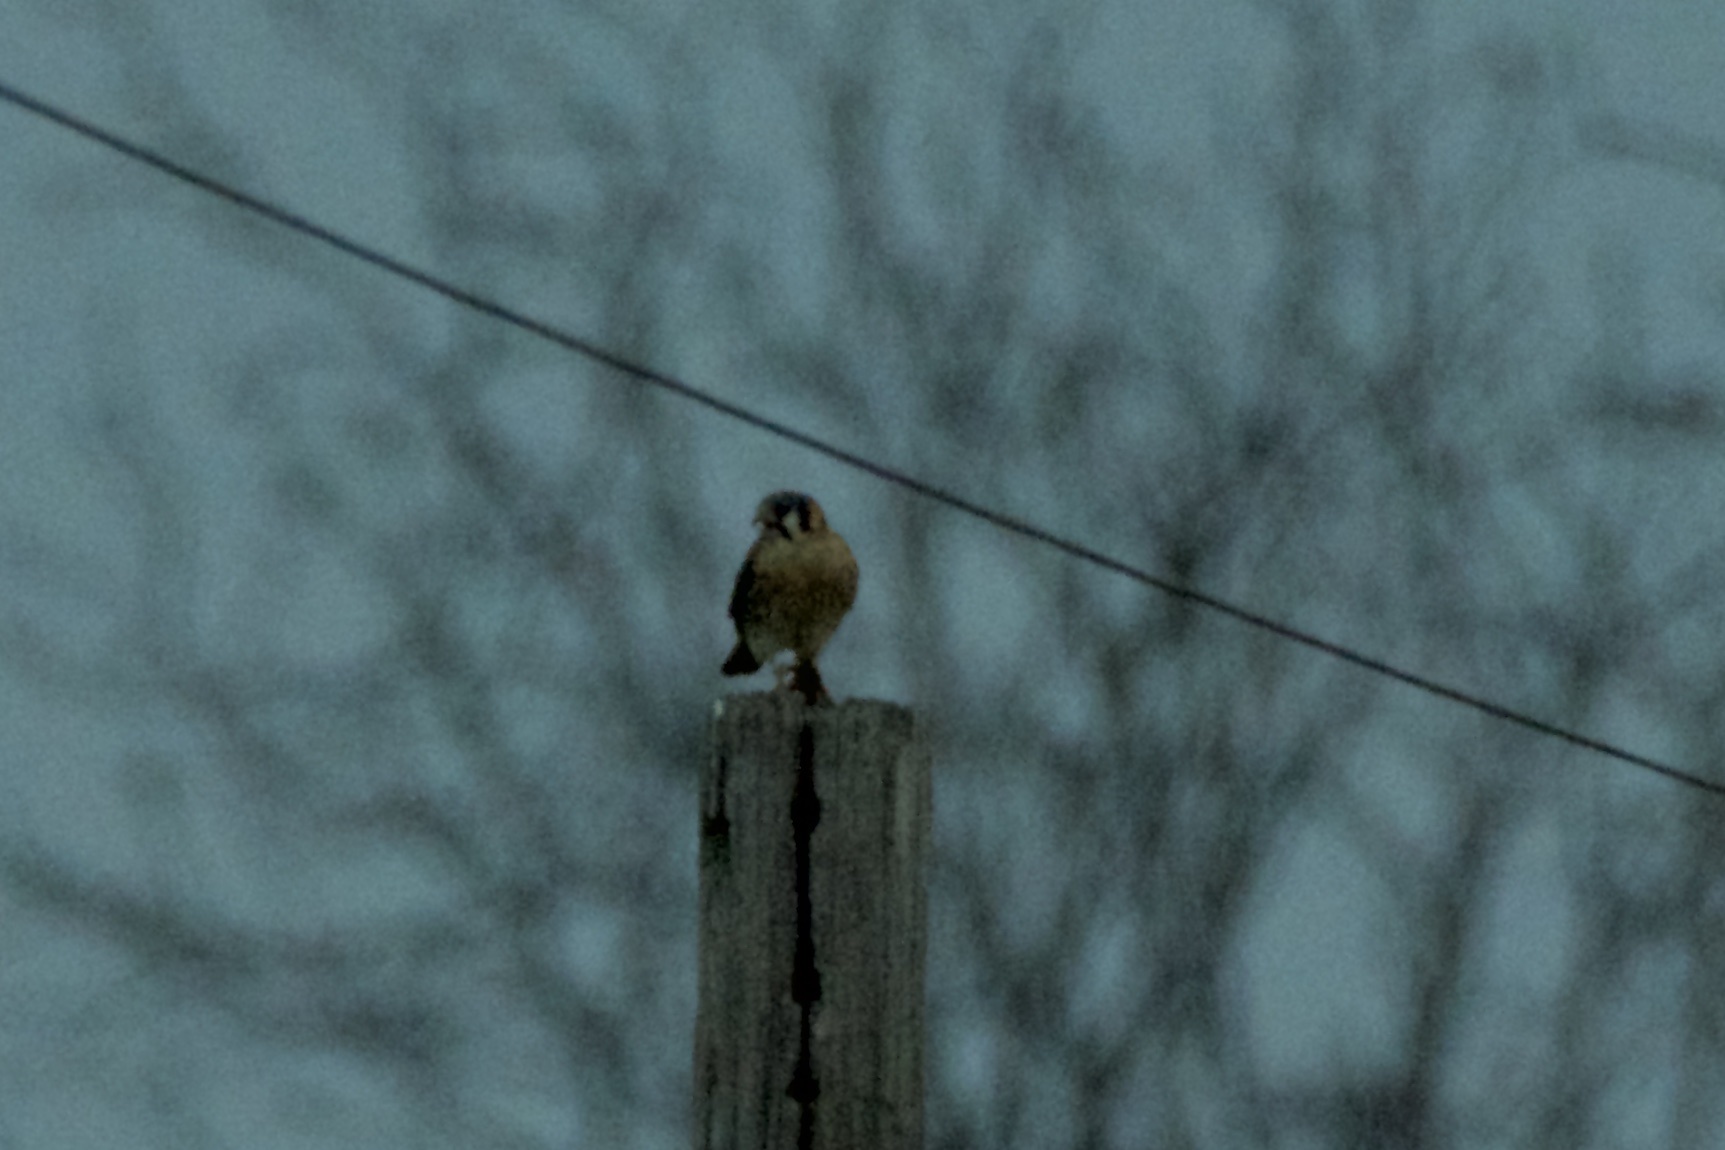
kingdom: Animalia
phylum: Chordata
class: Aves
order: Falconiformes
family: Falconidae
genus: Falco
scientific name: Falco sparverius
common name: American kestrel
